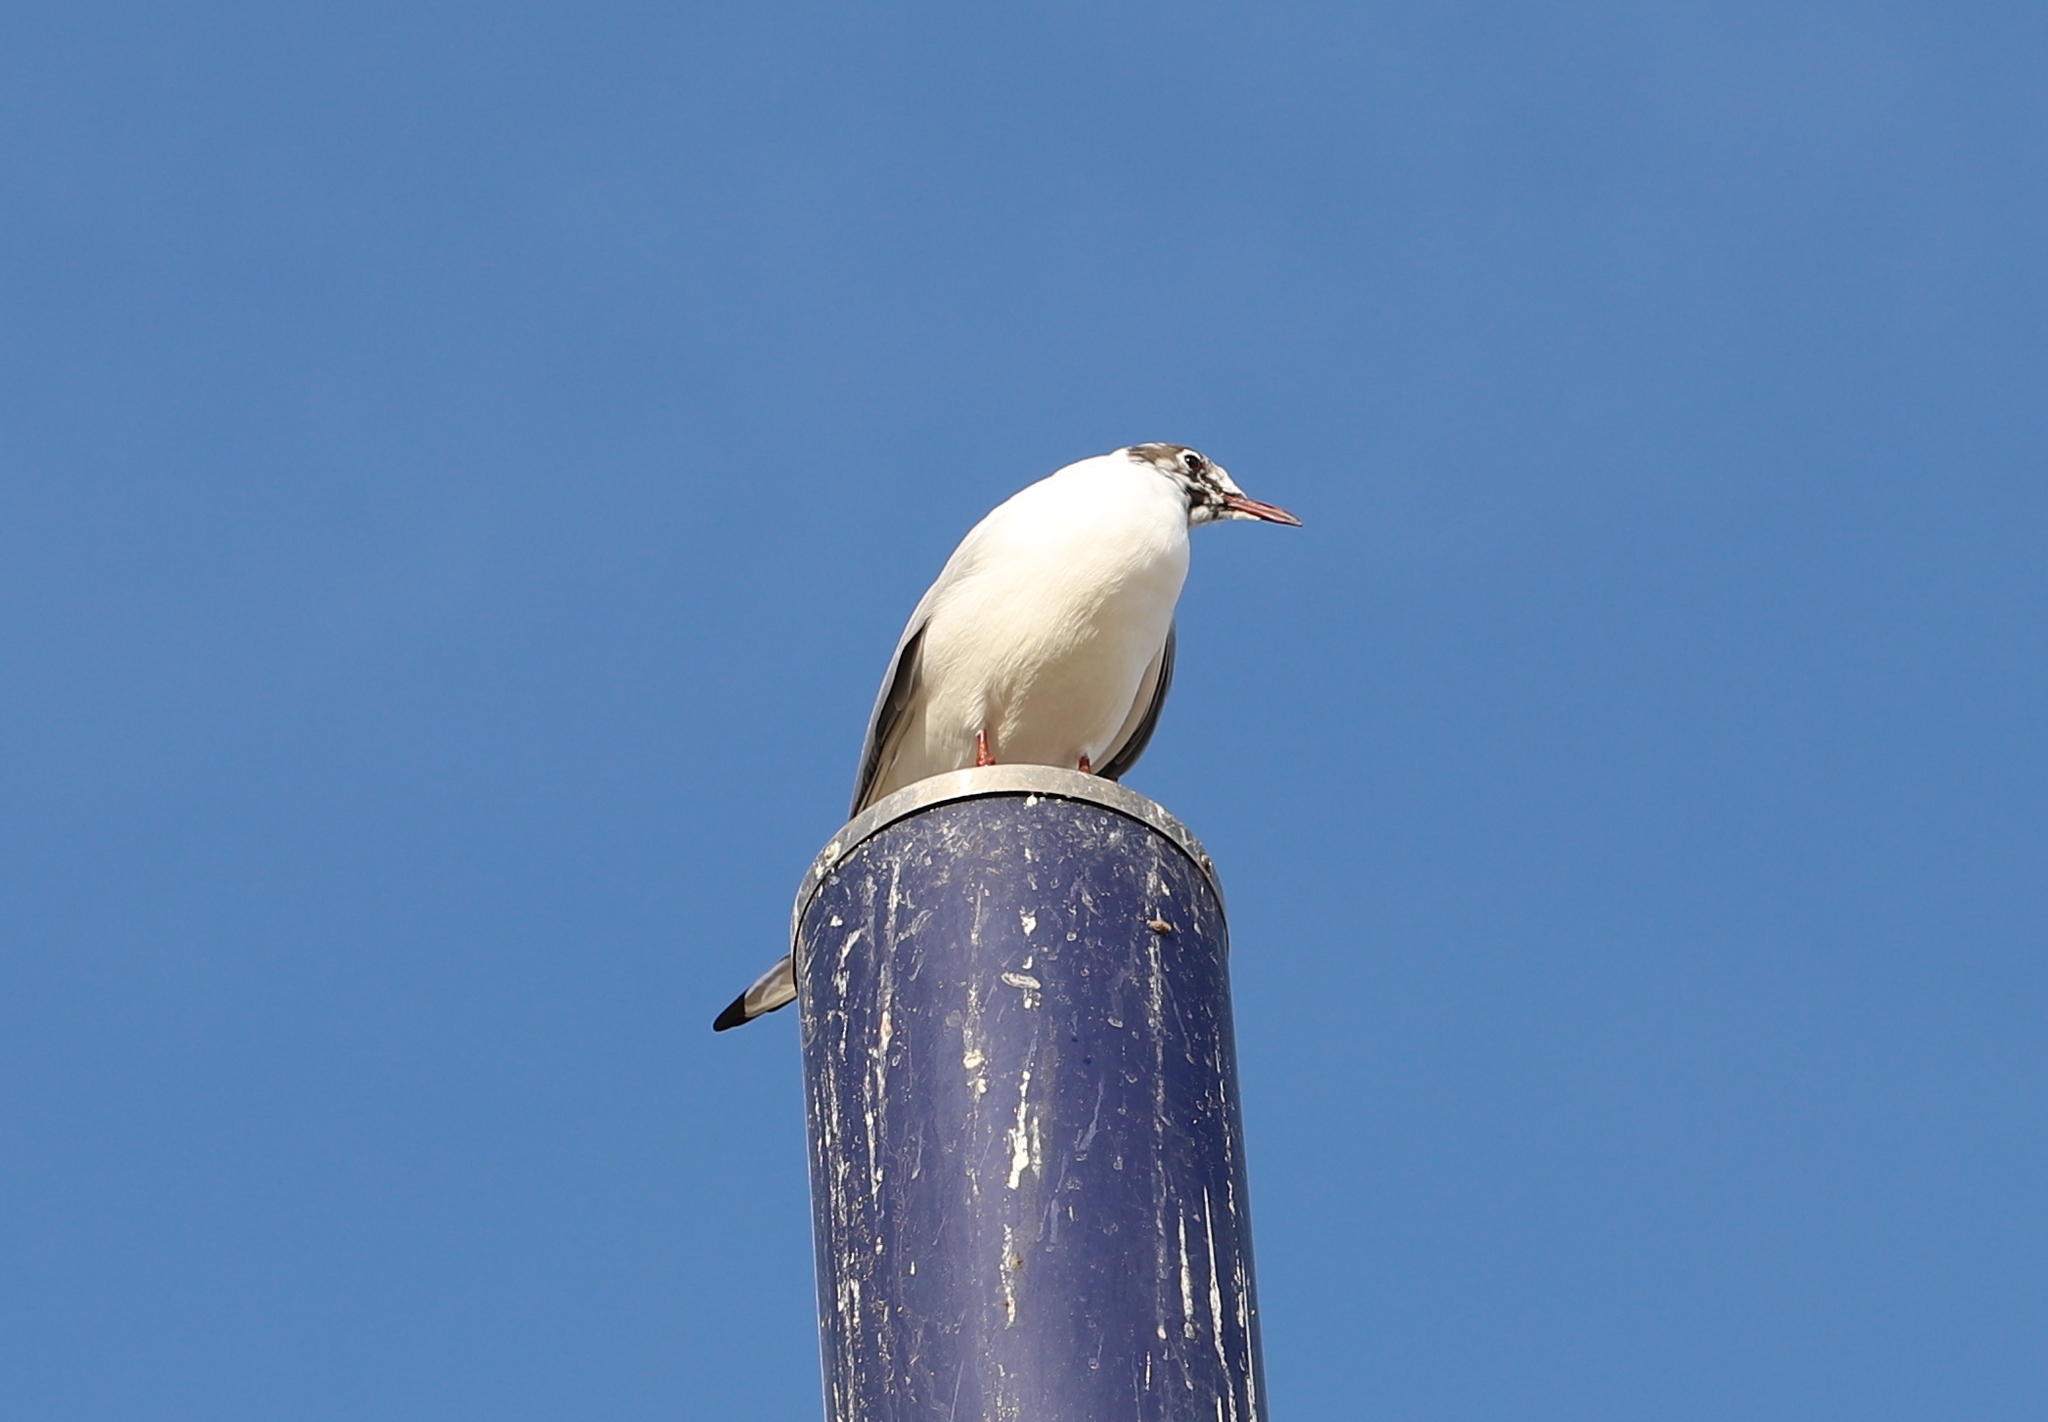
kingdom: Animalia
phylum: Chordata
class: Aves
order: Charadriiformes
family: Laridae
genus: Chroicocephalus
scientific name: Chroicocephalus ridibundus
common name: Black-headed gull
